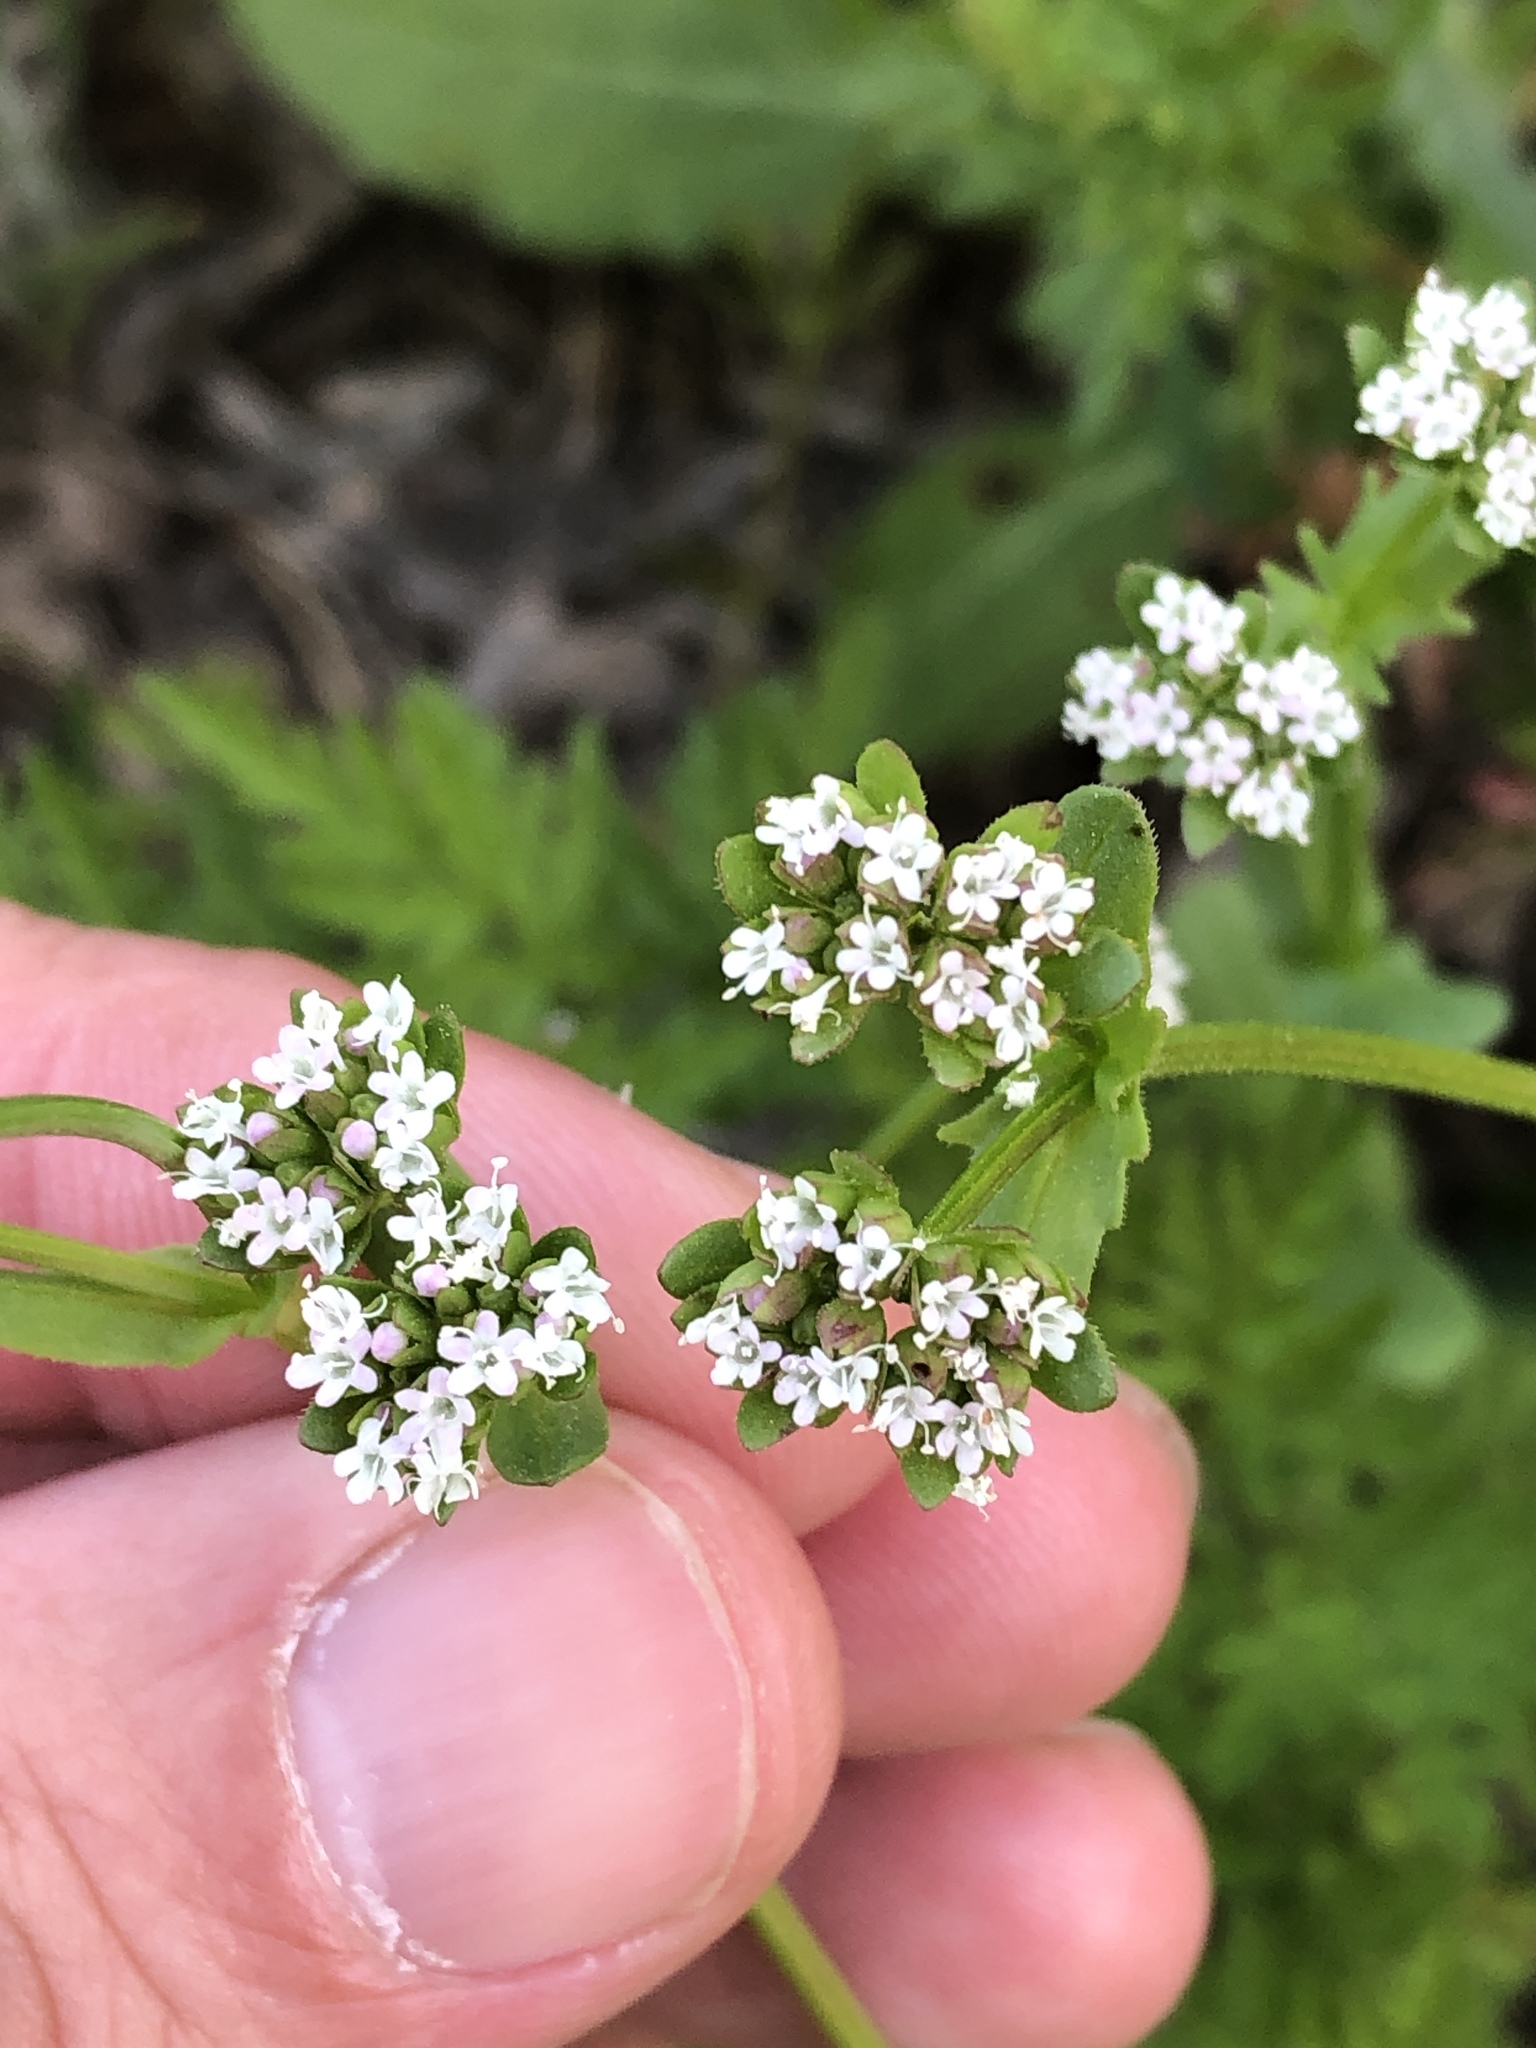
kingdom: Plantae
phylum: Tracheophyta
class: Magnoliopsida
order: Dipsacales
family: Caprifoliaceae
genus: Valerianella
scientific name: Valerianella radiata
